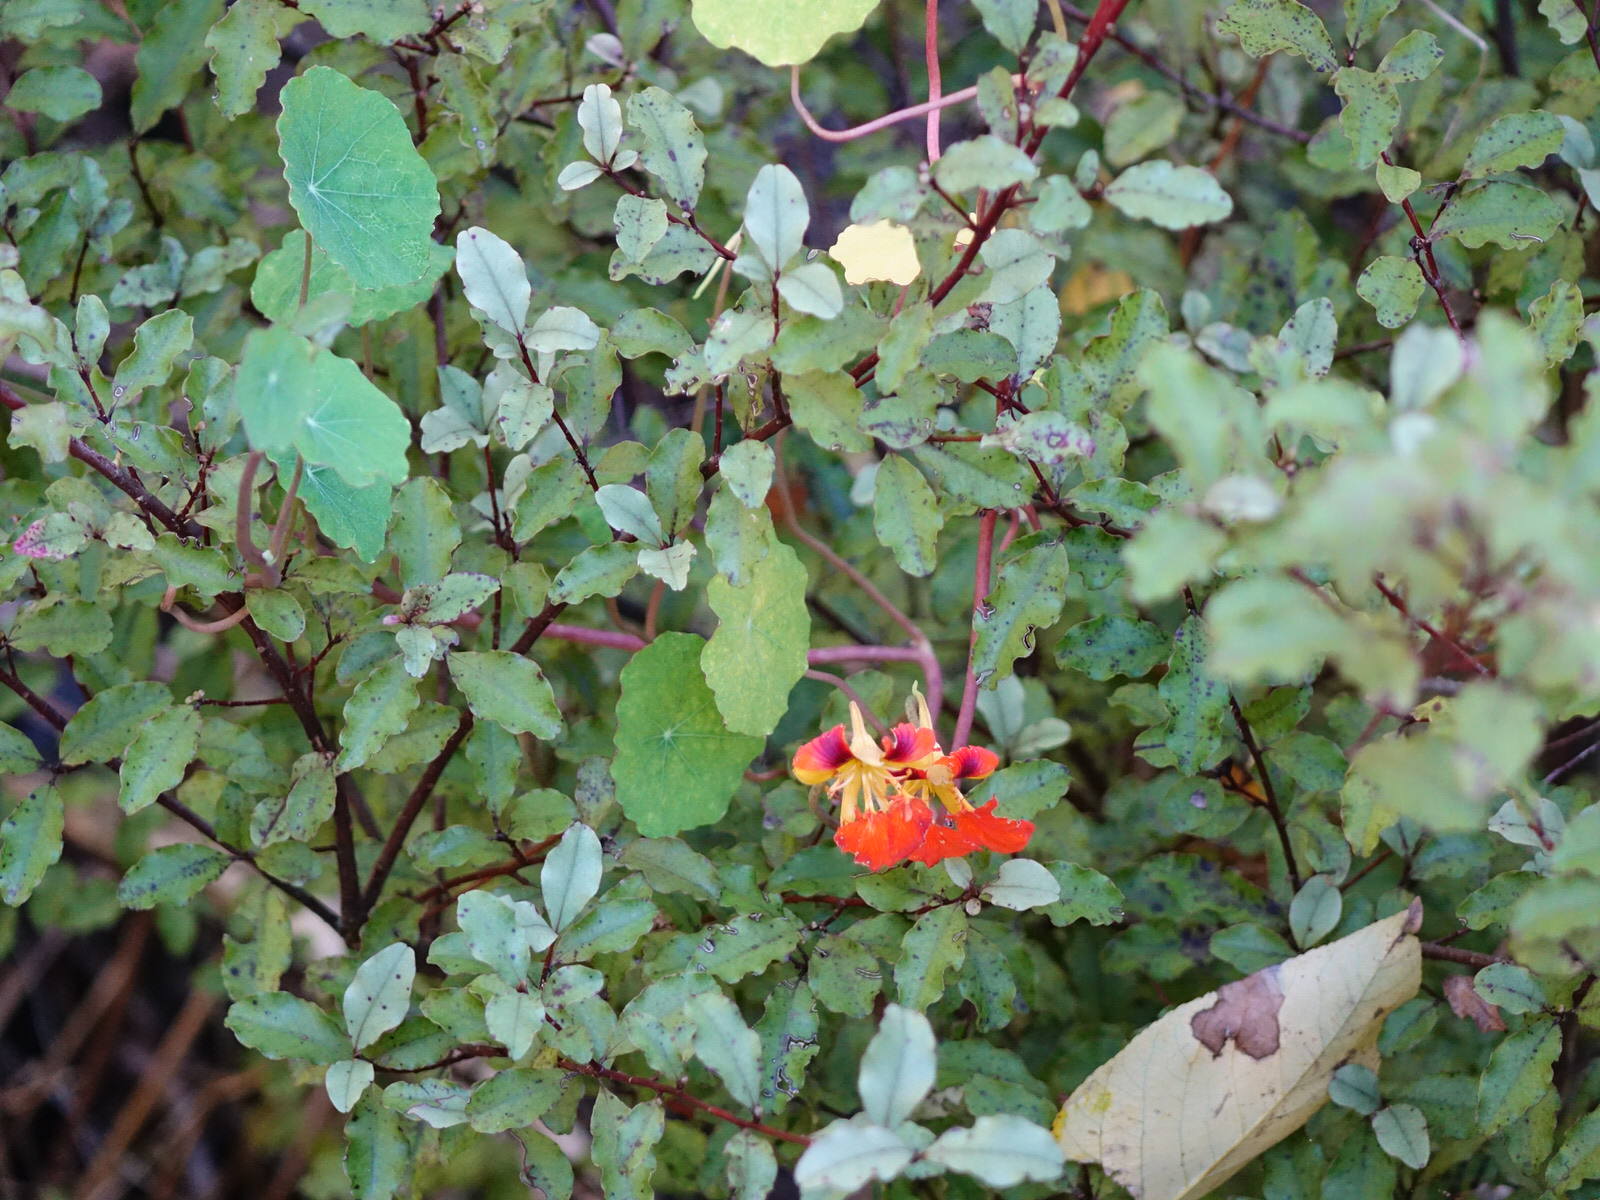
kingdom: Plantae
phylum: Tracheophyta
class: Magnoliopsida
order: Brassicales
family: Tropaeolaceae
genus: Tropaeolum
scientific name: Tropaeolum majus
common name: Nasturtium
